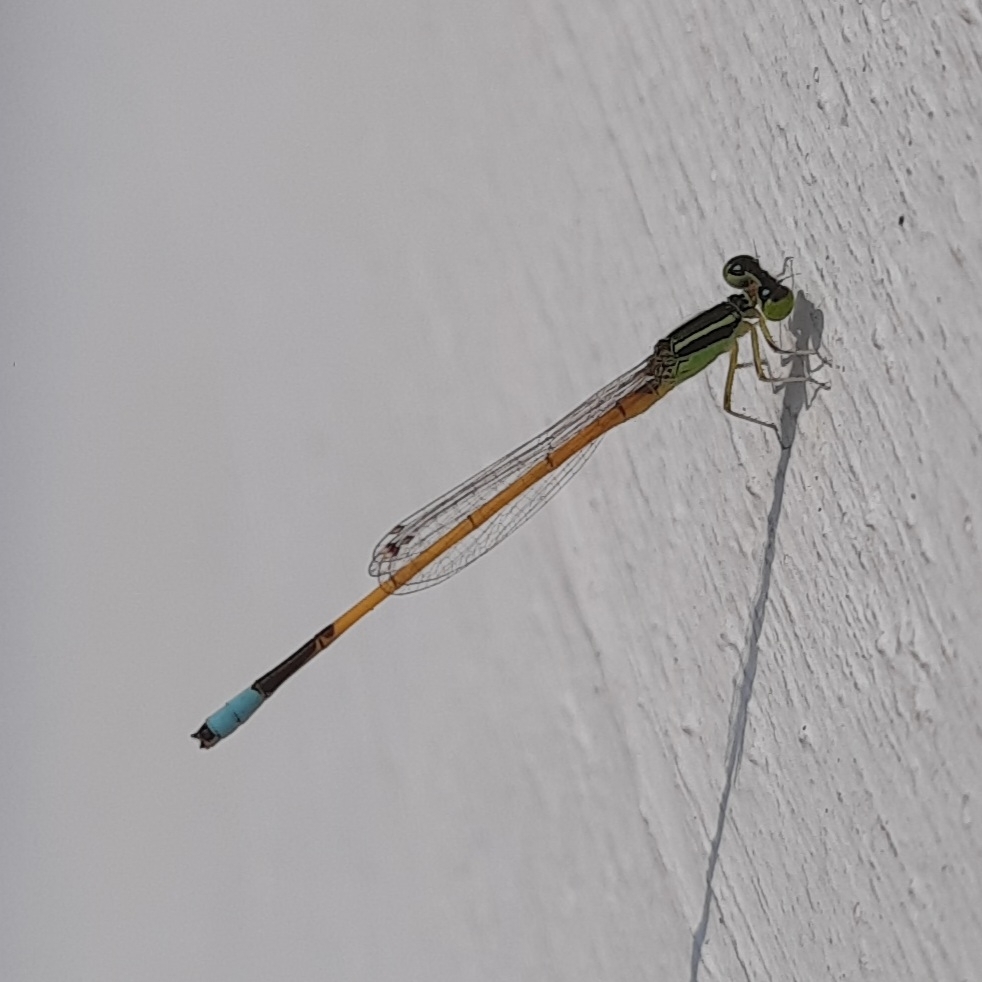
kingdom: Animalia
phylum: Arthropoda
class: Insecta
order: Odonata
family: Coenagrionidae
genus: Ischnura
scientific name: Ischnura rubilio
